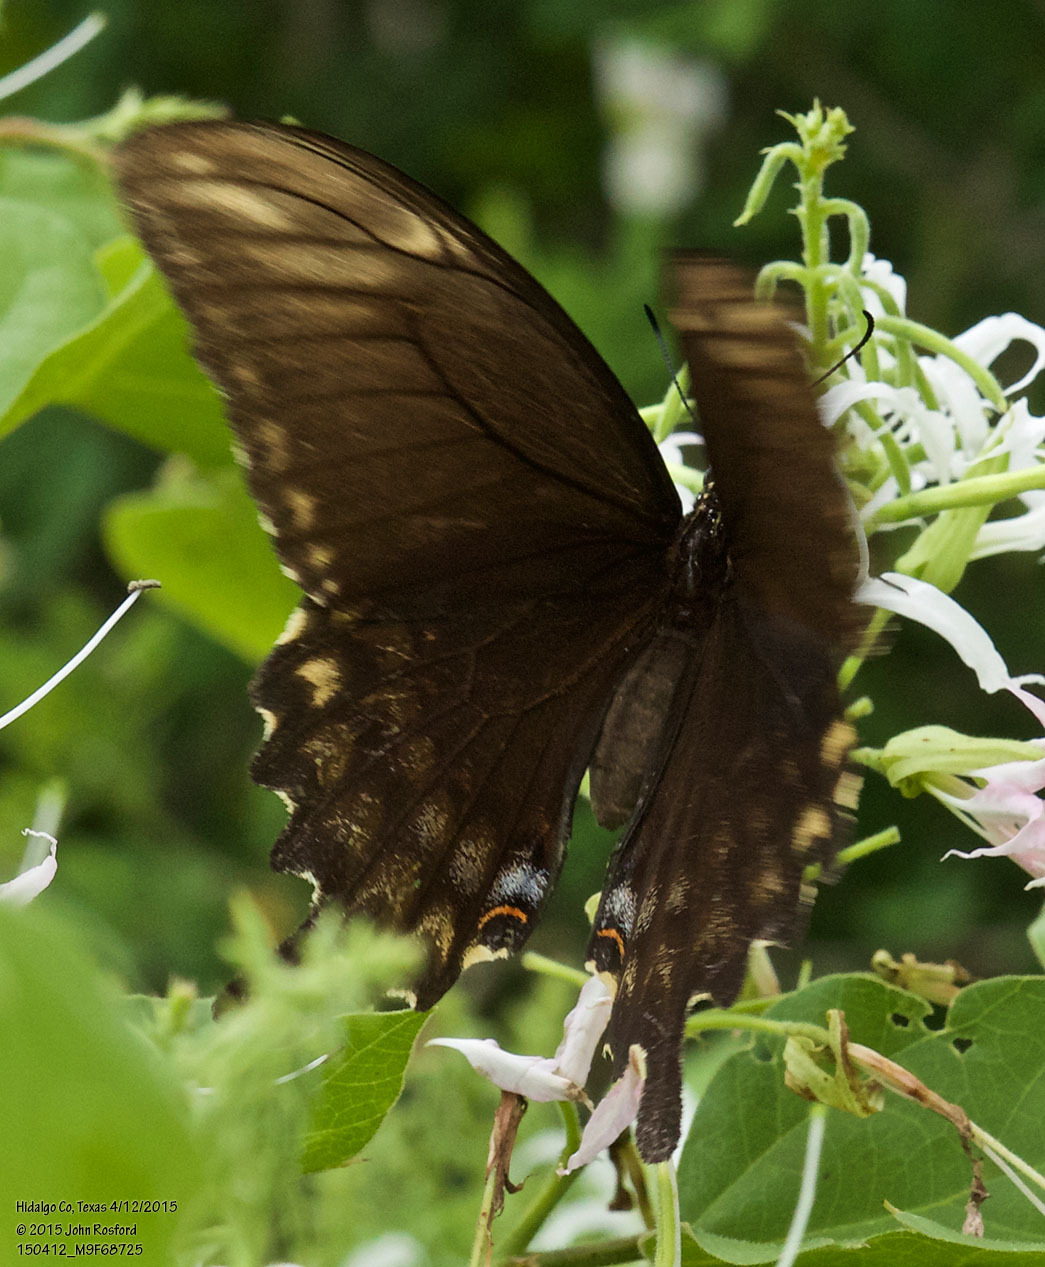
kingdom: Animalia
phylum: Arthropoda
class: Insecta
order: Lepidoptera
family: Papilionidae
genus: Papilio
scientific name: Papilio ornythion
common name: Ornythion swallowtail
